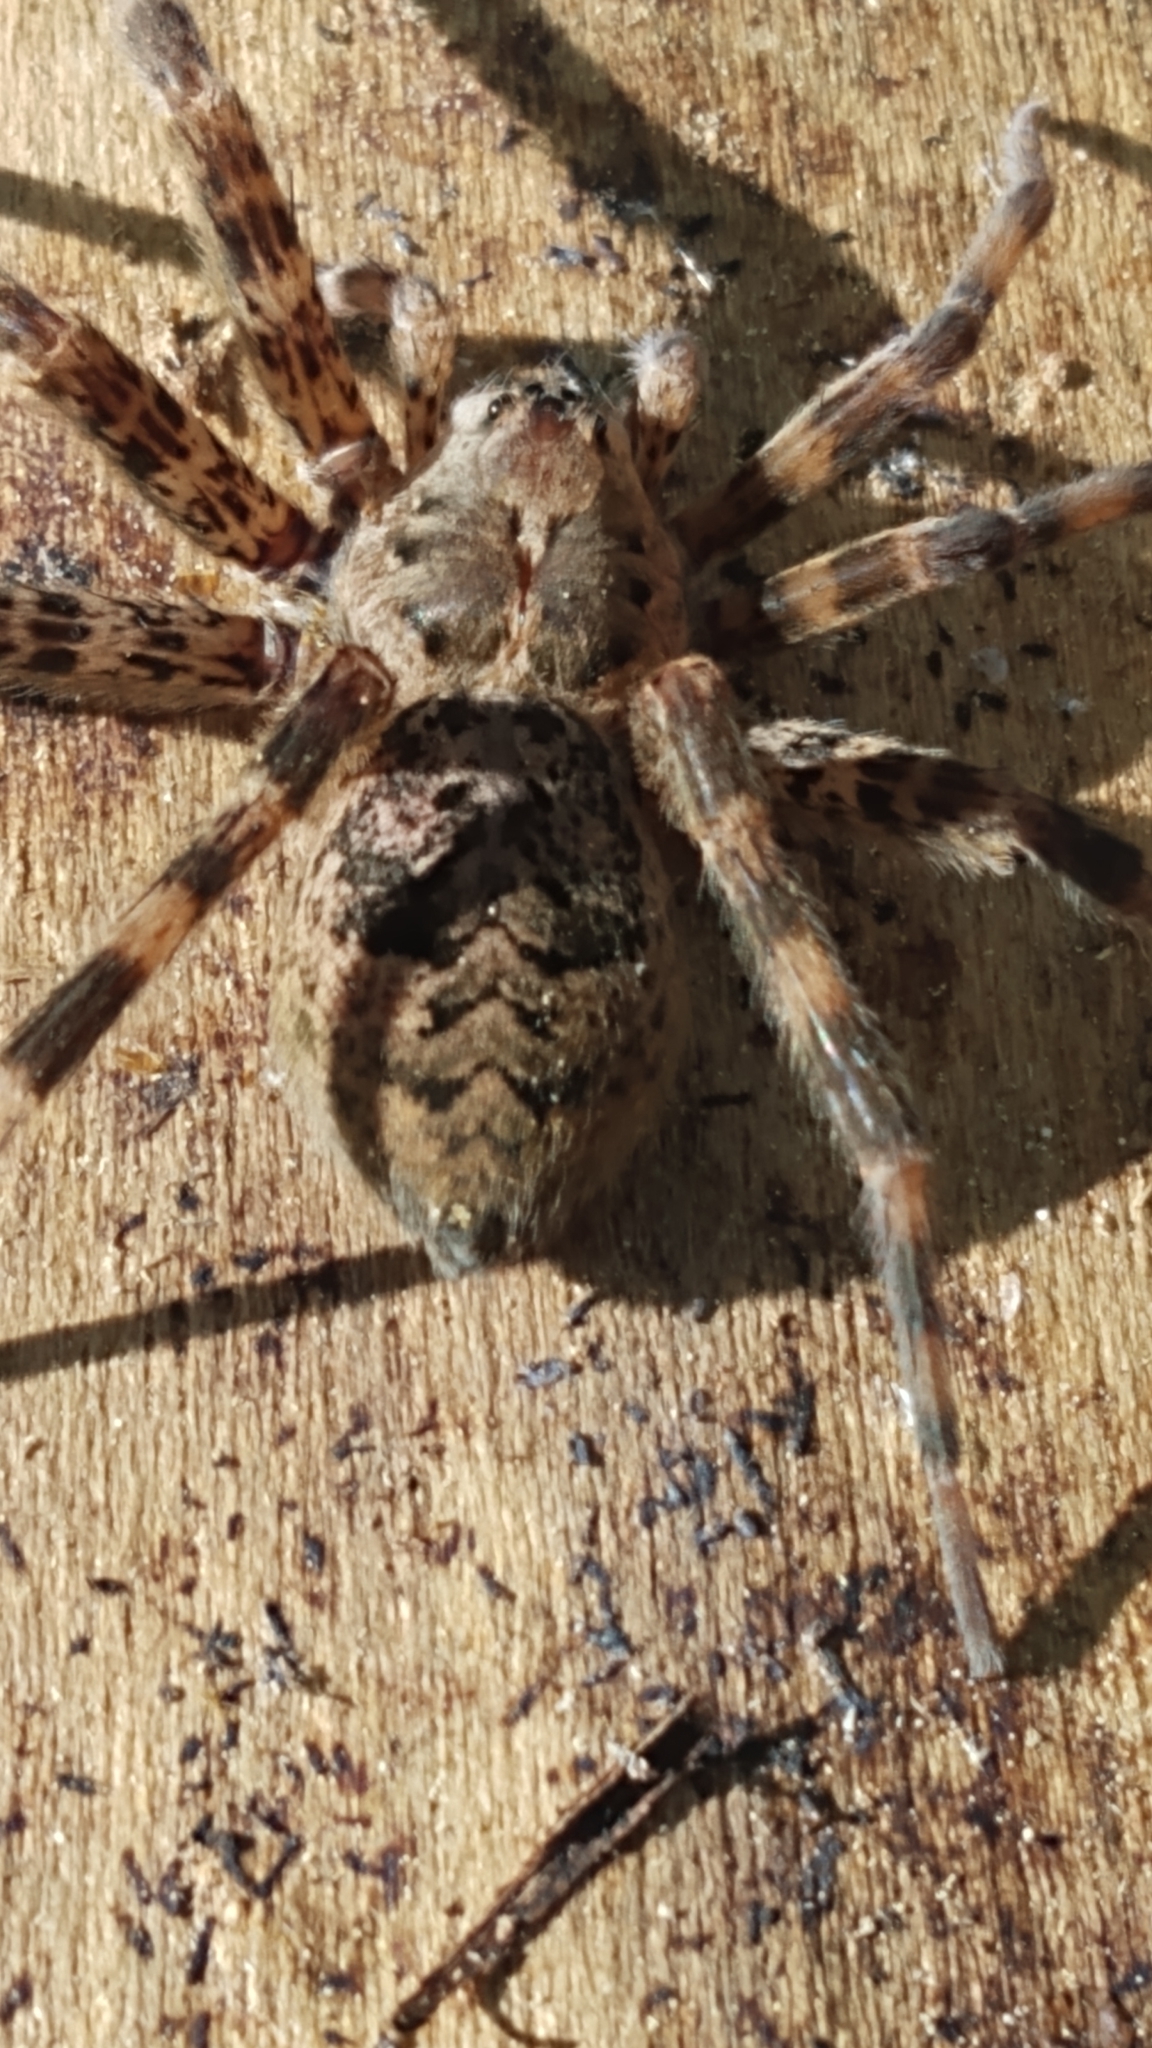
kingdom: Animalia
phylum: Arthropoda
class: Arachnida
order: Araneae
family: Pisauridae
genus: Dolomedes
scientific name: Dolomedes tenebrosus
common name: Dark fishing spider
